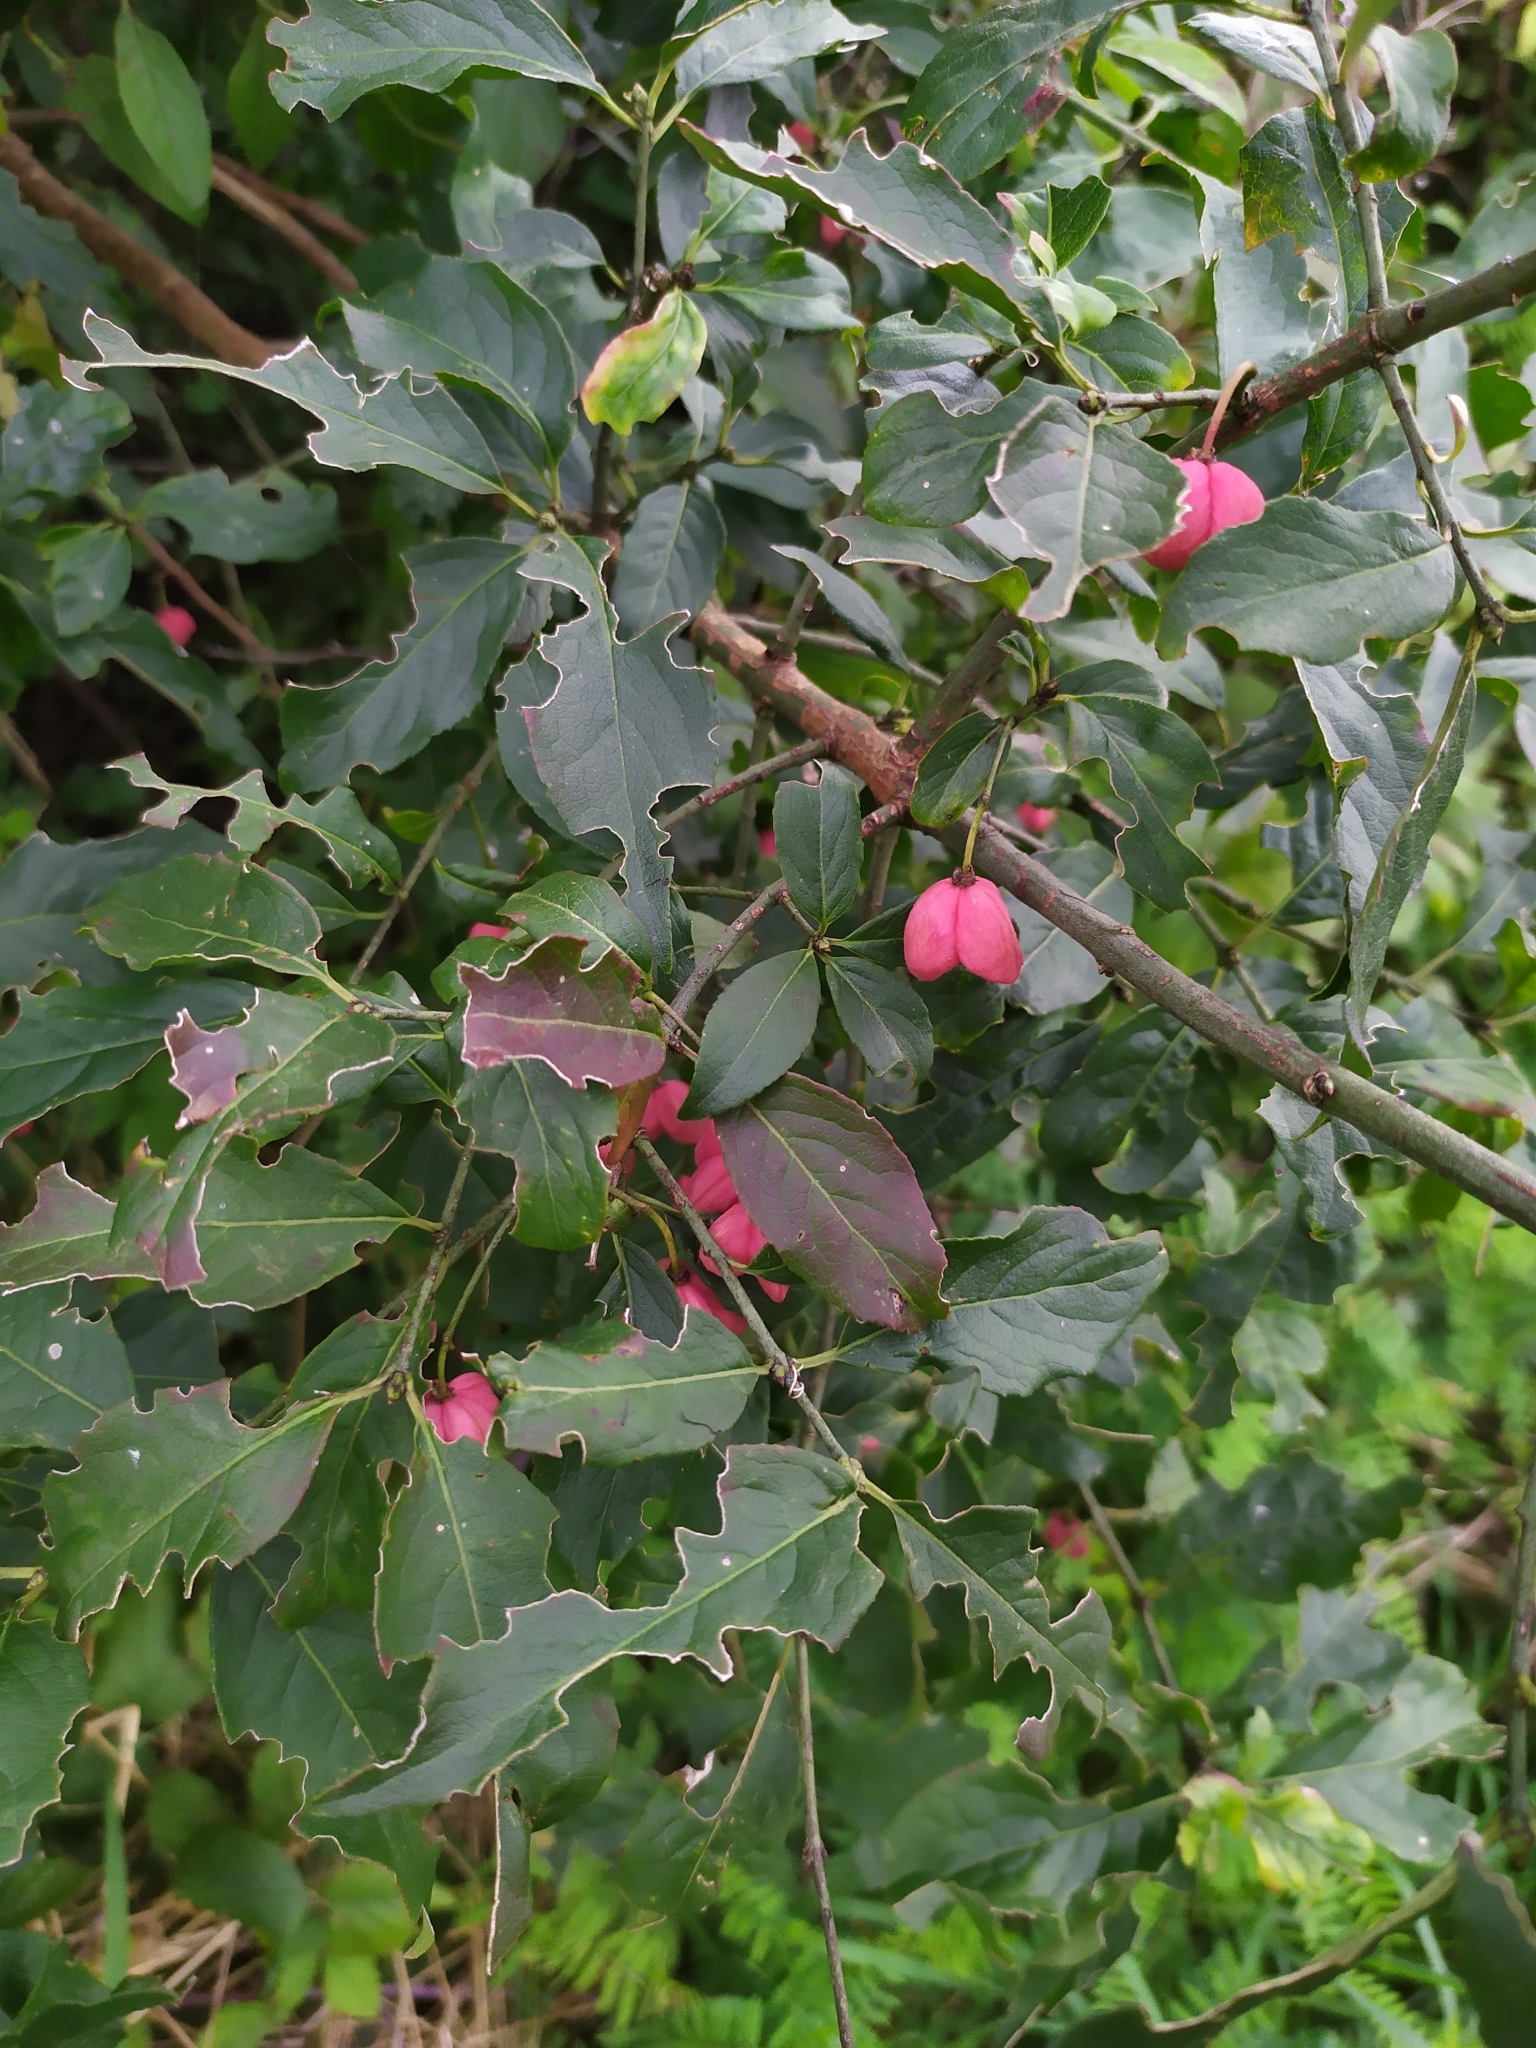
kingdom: Plantae
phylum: Tracheophyta
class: Magnoliopsida
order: Celastrales
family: Celastraceae
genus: Euonymus
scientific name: Euonymus europaeus
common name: Spindle
